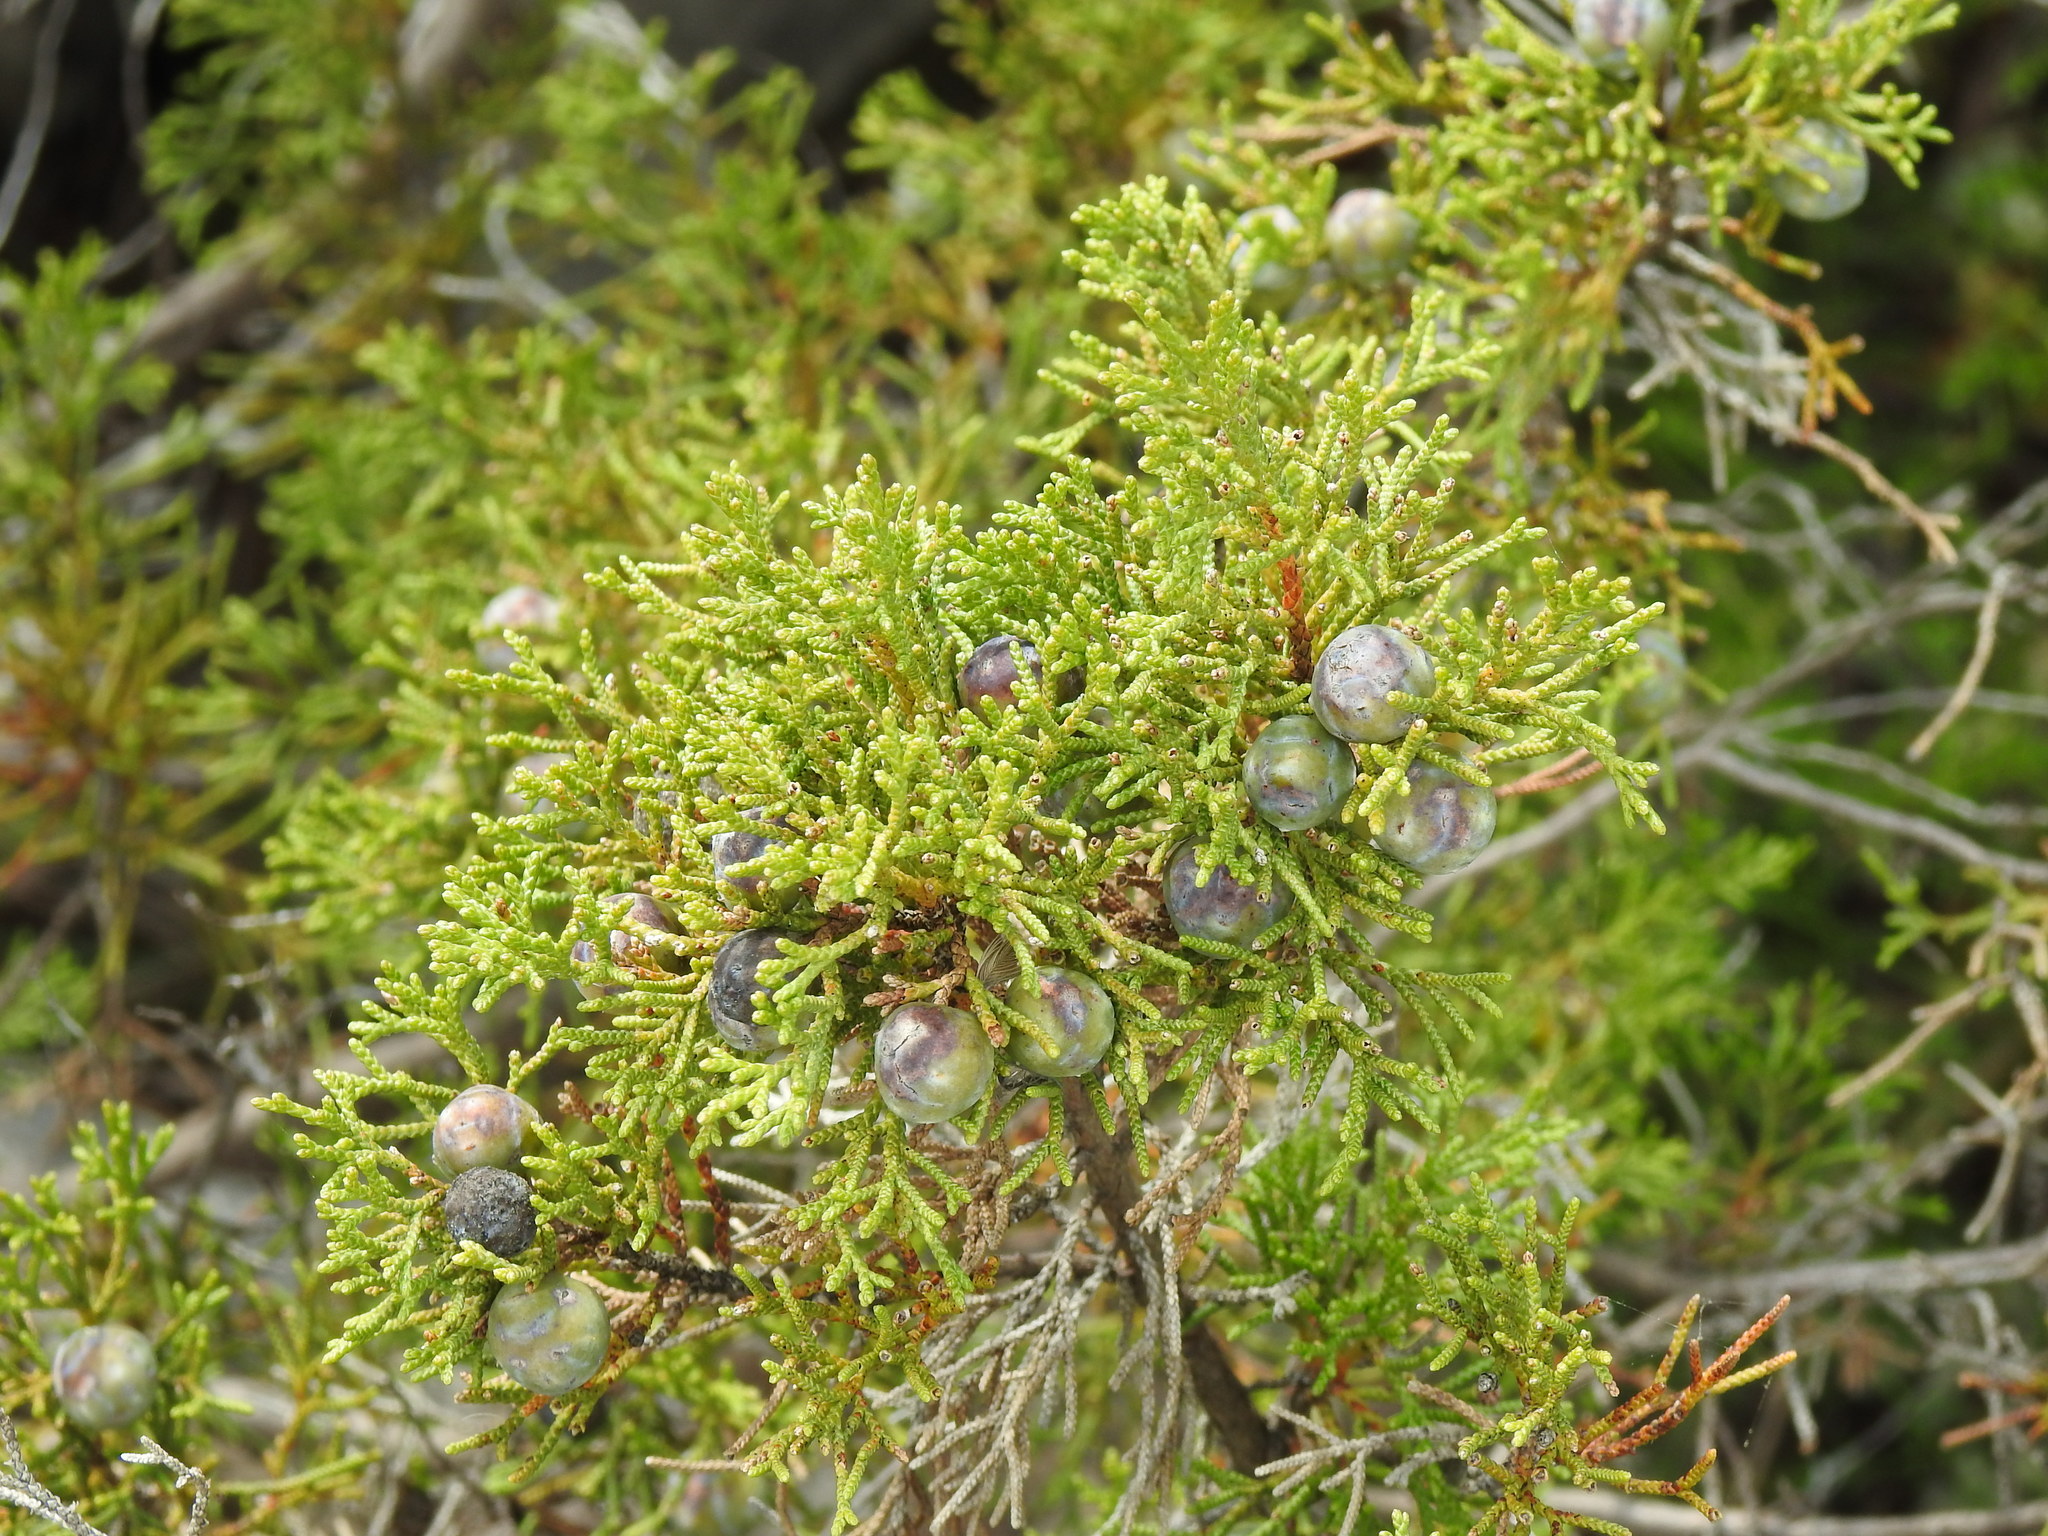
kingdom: Plantae
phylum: Tracheophyta
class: Pinopsida
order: Pinales
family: Cupressaceae
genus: Juniperus
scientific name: Juniperus phoenicea
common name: Phoenician juniper
